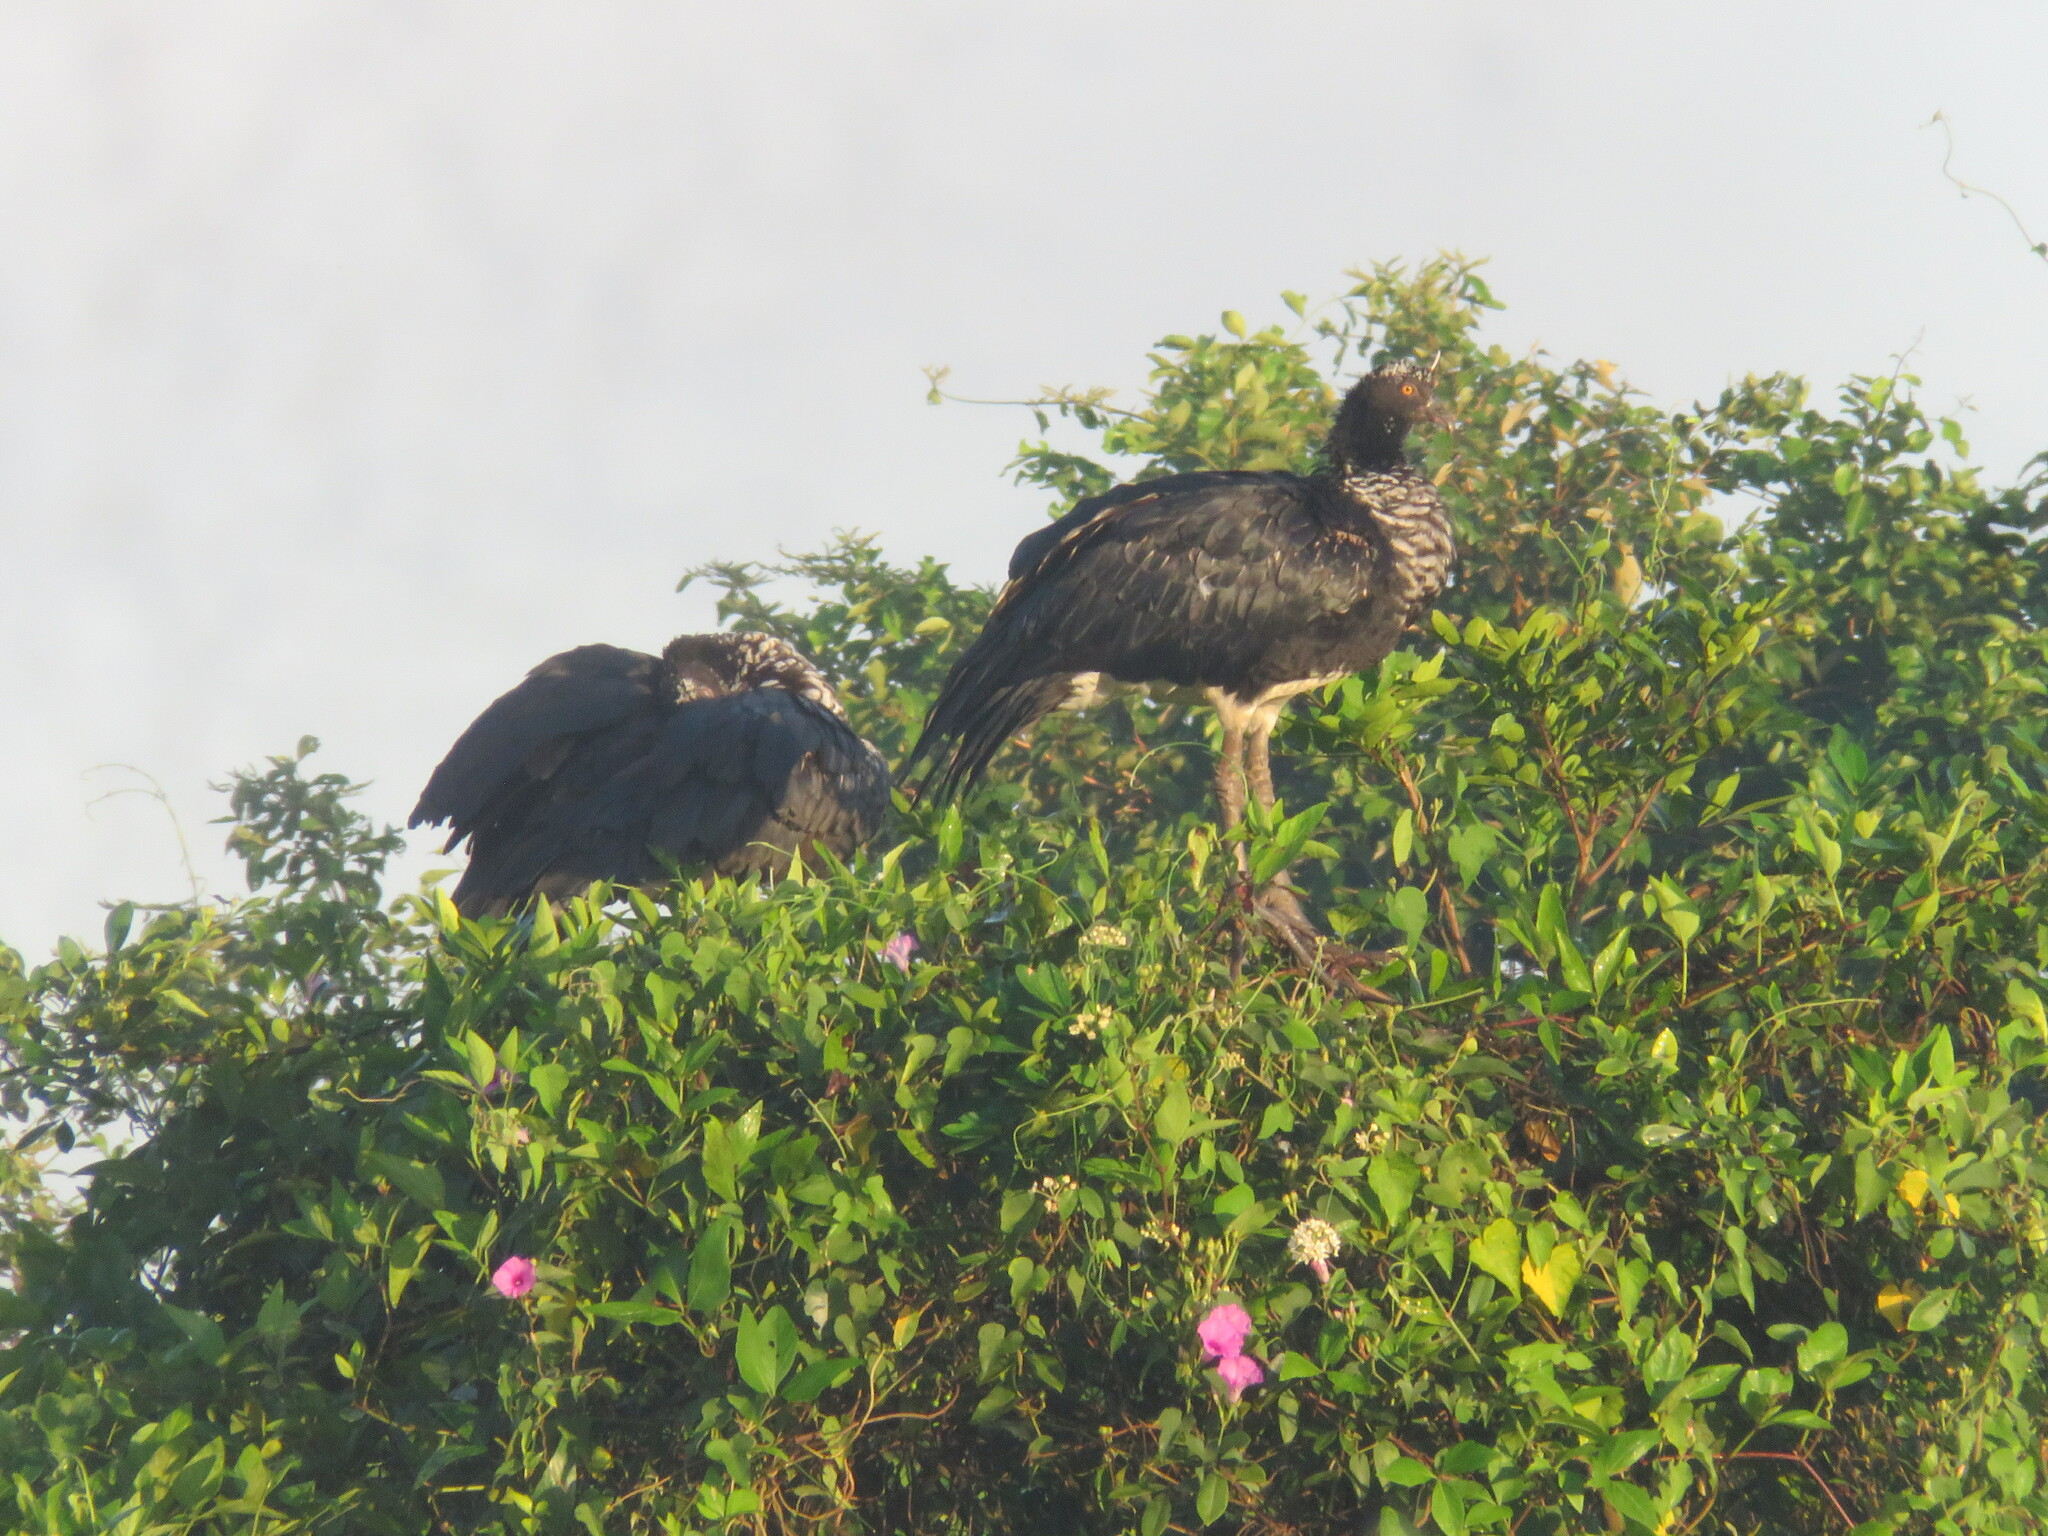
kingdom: Animalia
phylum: Chordata
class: Aves
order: Anseriformes
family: Anhimidae
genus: Anhima
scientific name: Anhima cornuta
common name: Horned screamer
